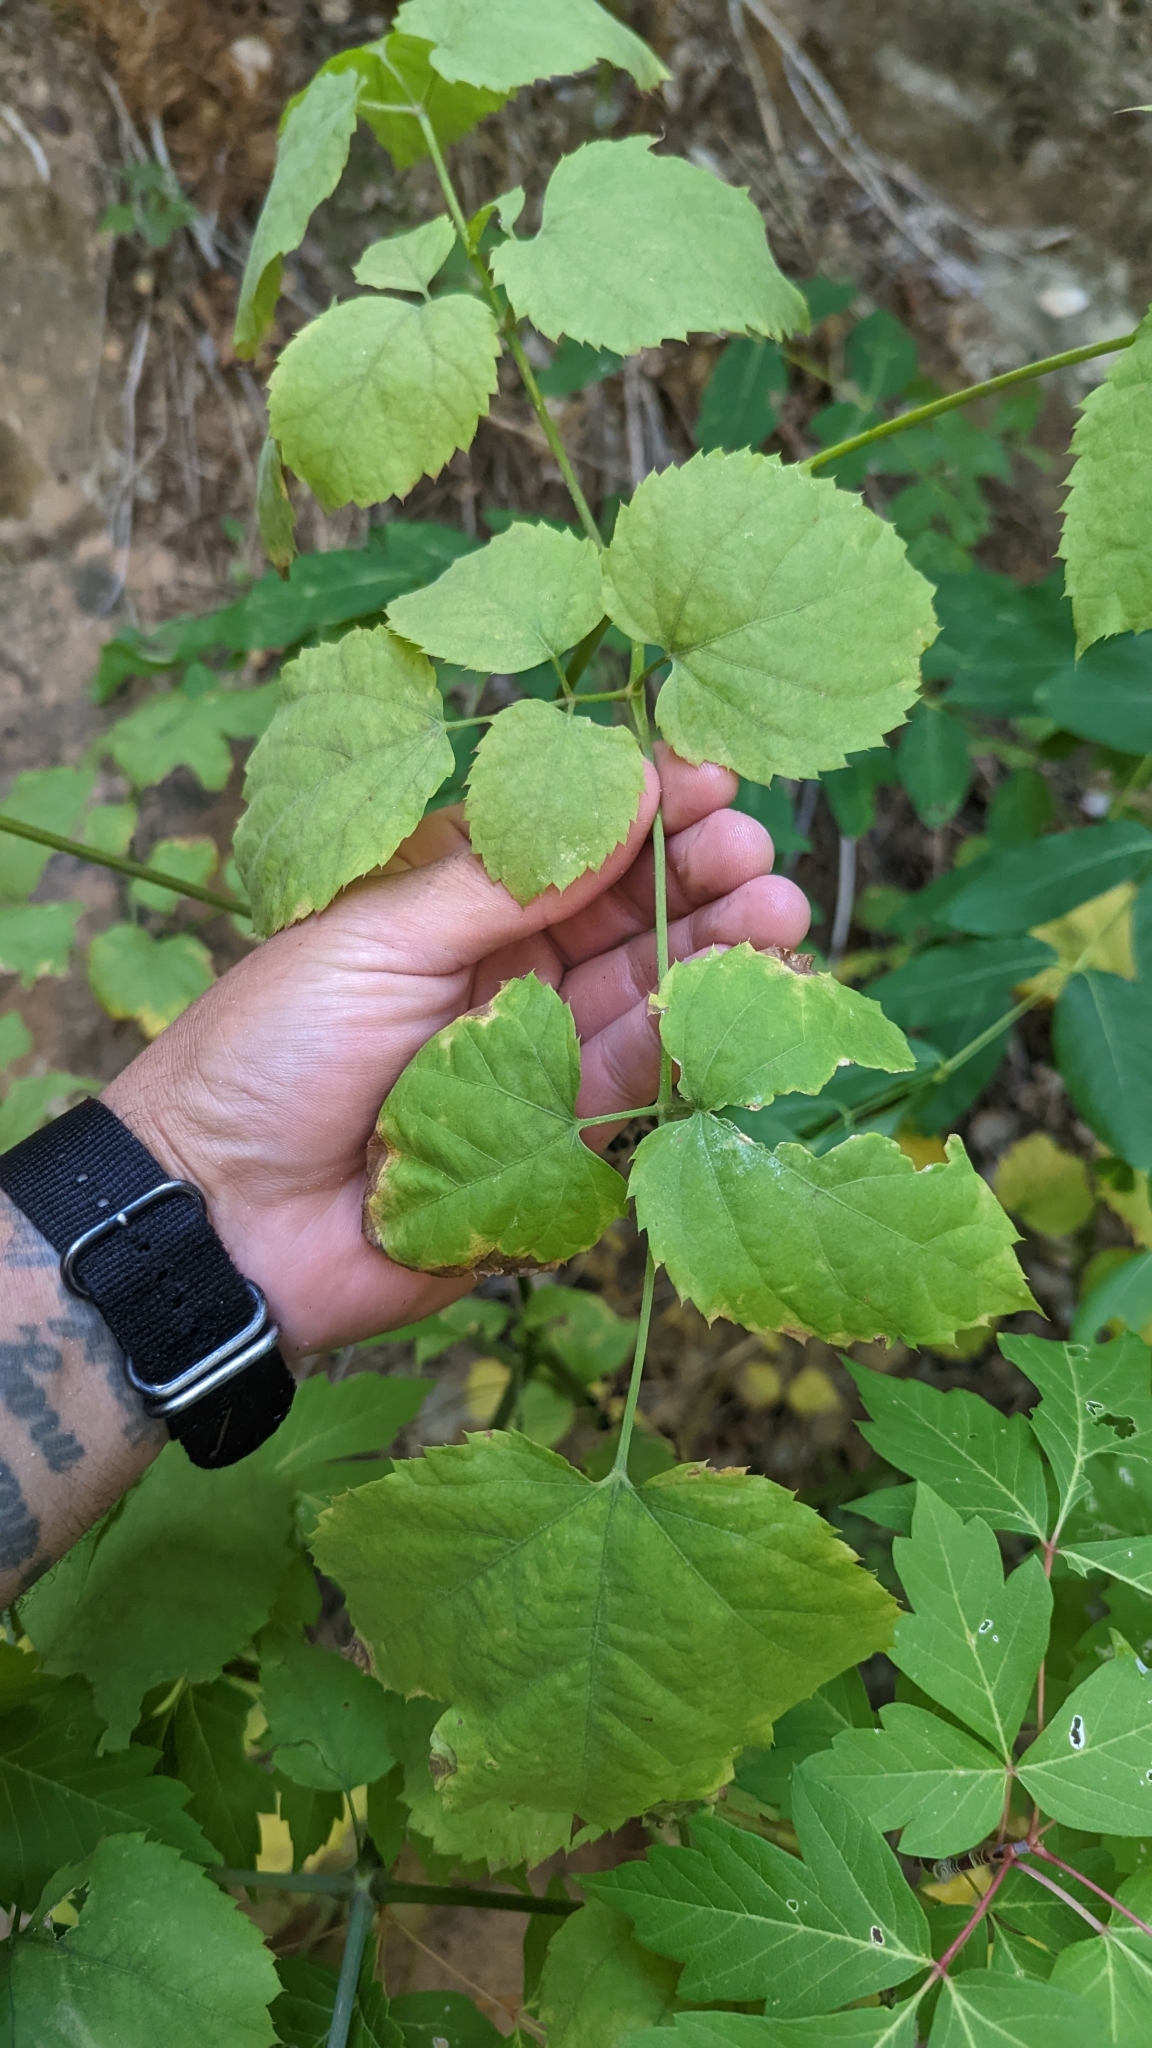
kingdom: Plantae
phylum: Tracheophyta
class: Magnoliopsida
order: Apiales
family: Araliaceae
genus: Aralia
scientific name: Aralia bicrenata
